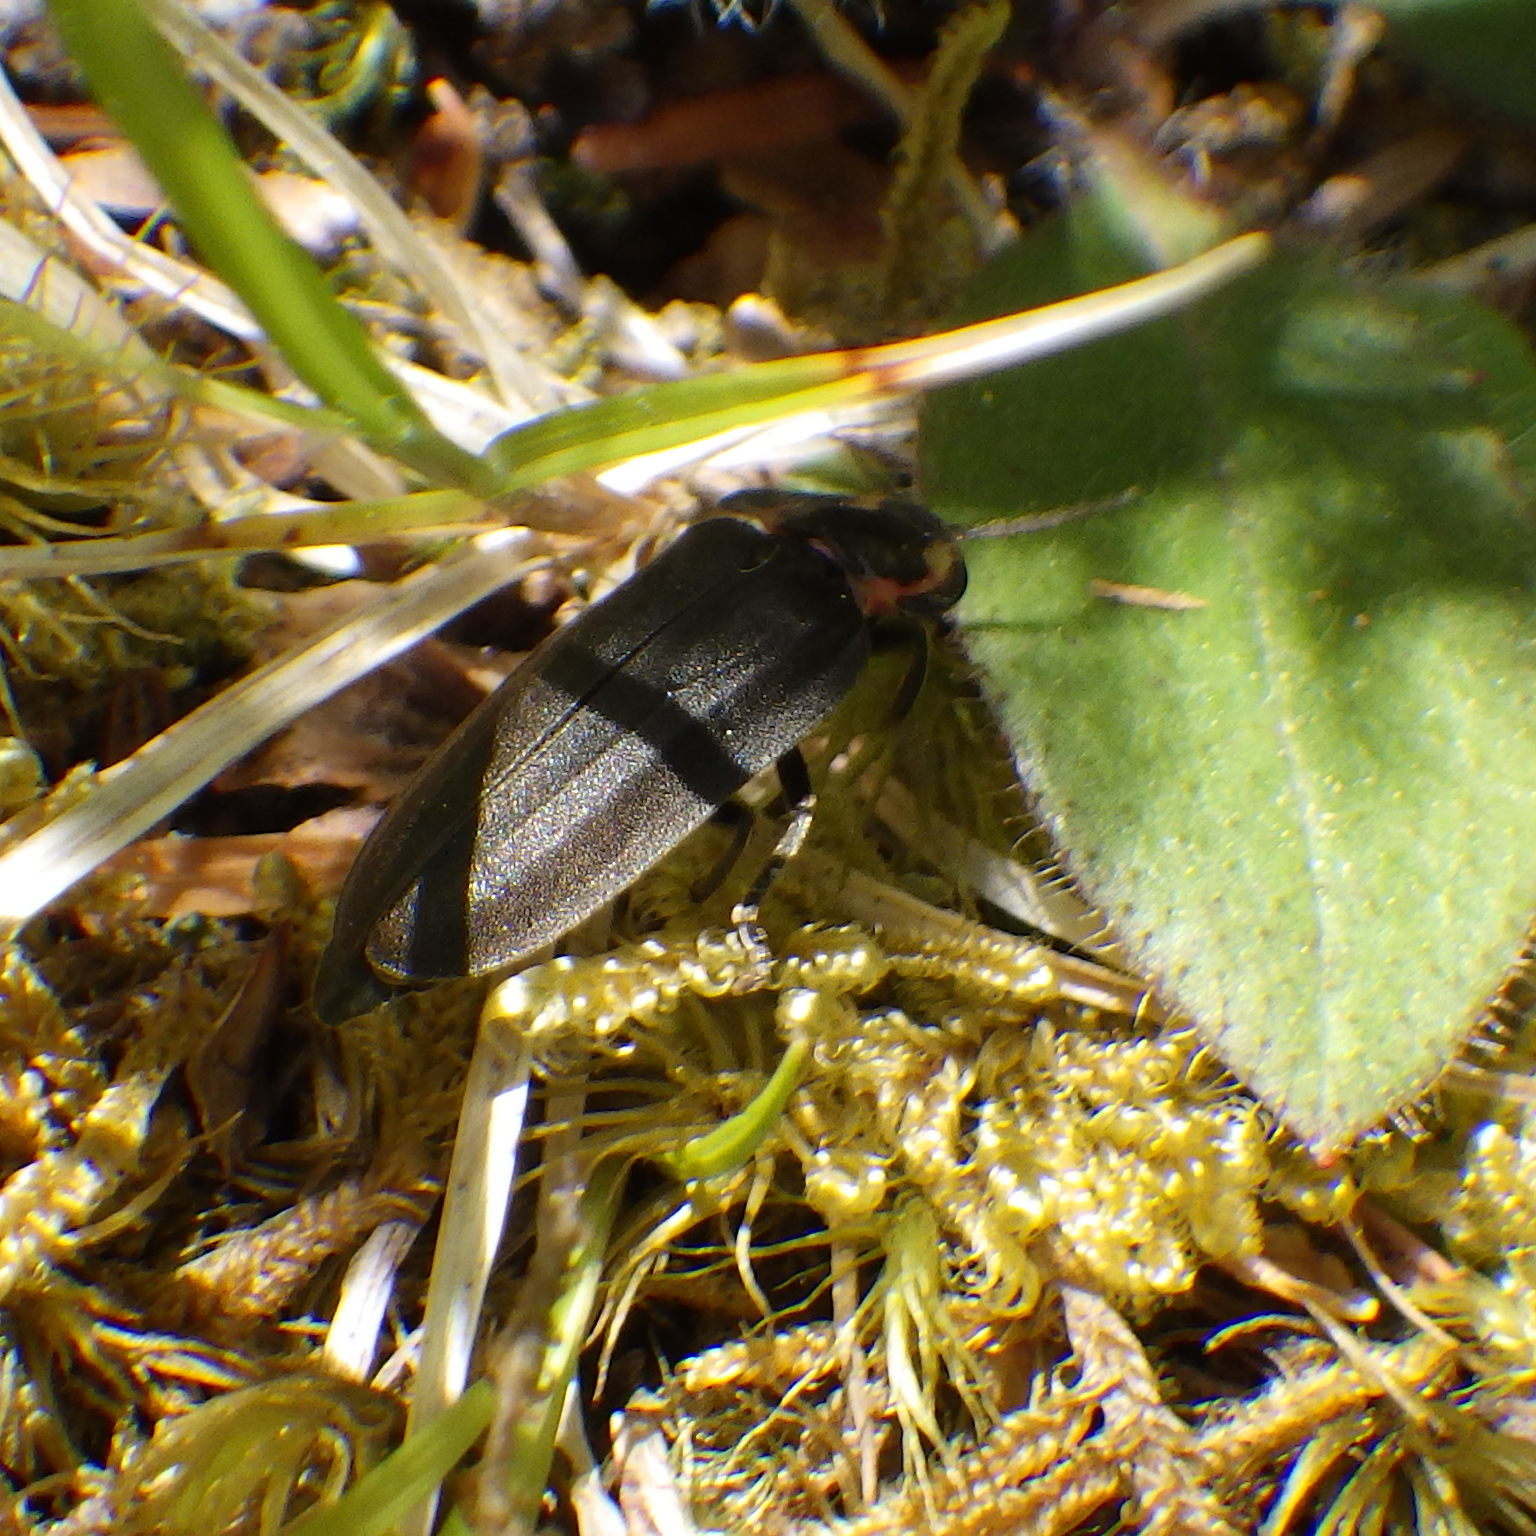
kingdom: Animalia
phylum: Arthropoda
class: Insecta
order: Coleoptera
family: Lampyridae
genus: Photinus
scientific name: Photinus corrusca
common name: Winter firefly
